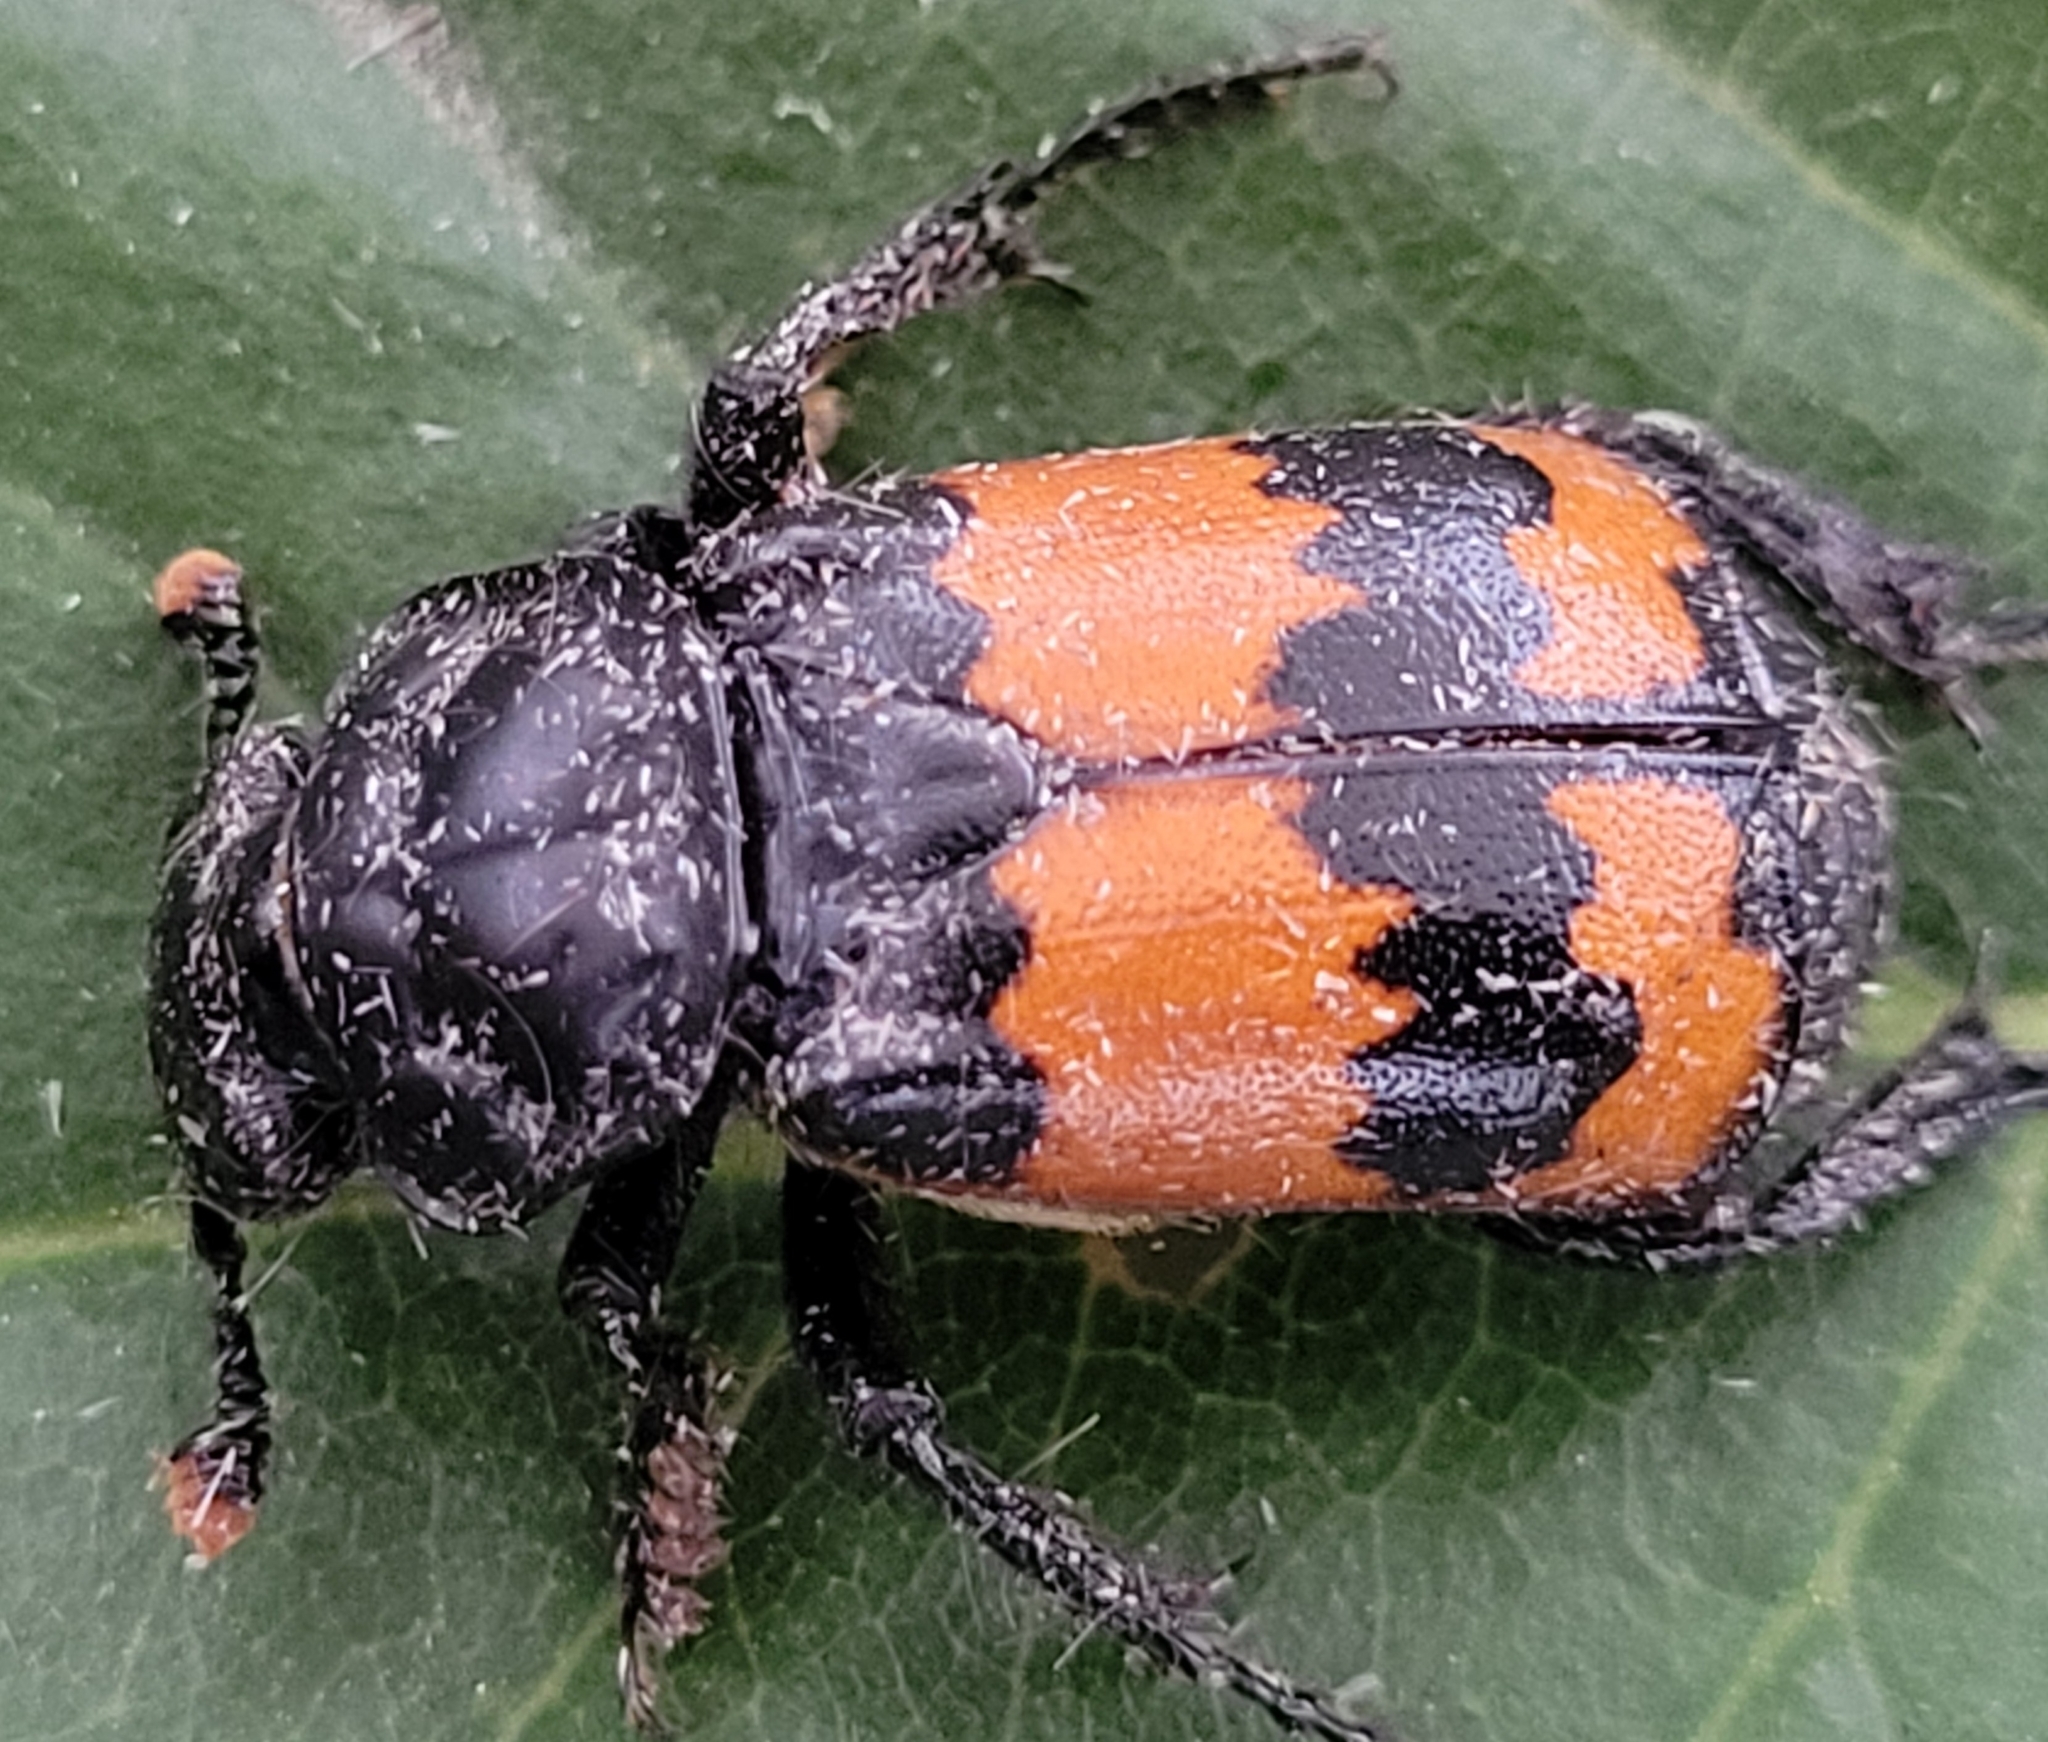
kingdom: Animalia
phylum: Arthropoda
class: Insecta
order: Coleoptera
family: Staphylinidae
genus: Nicrophorus
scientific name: Nicrophorus investigator
